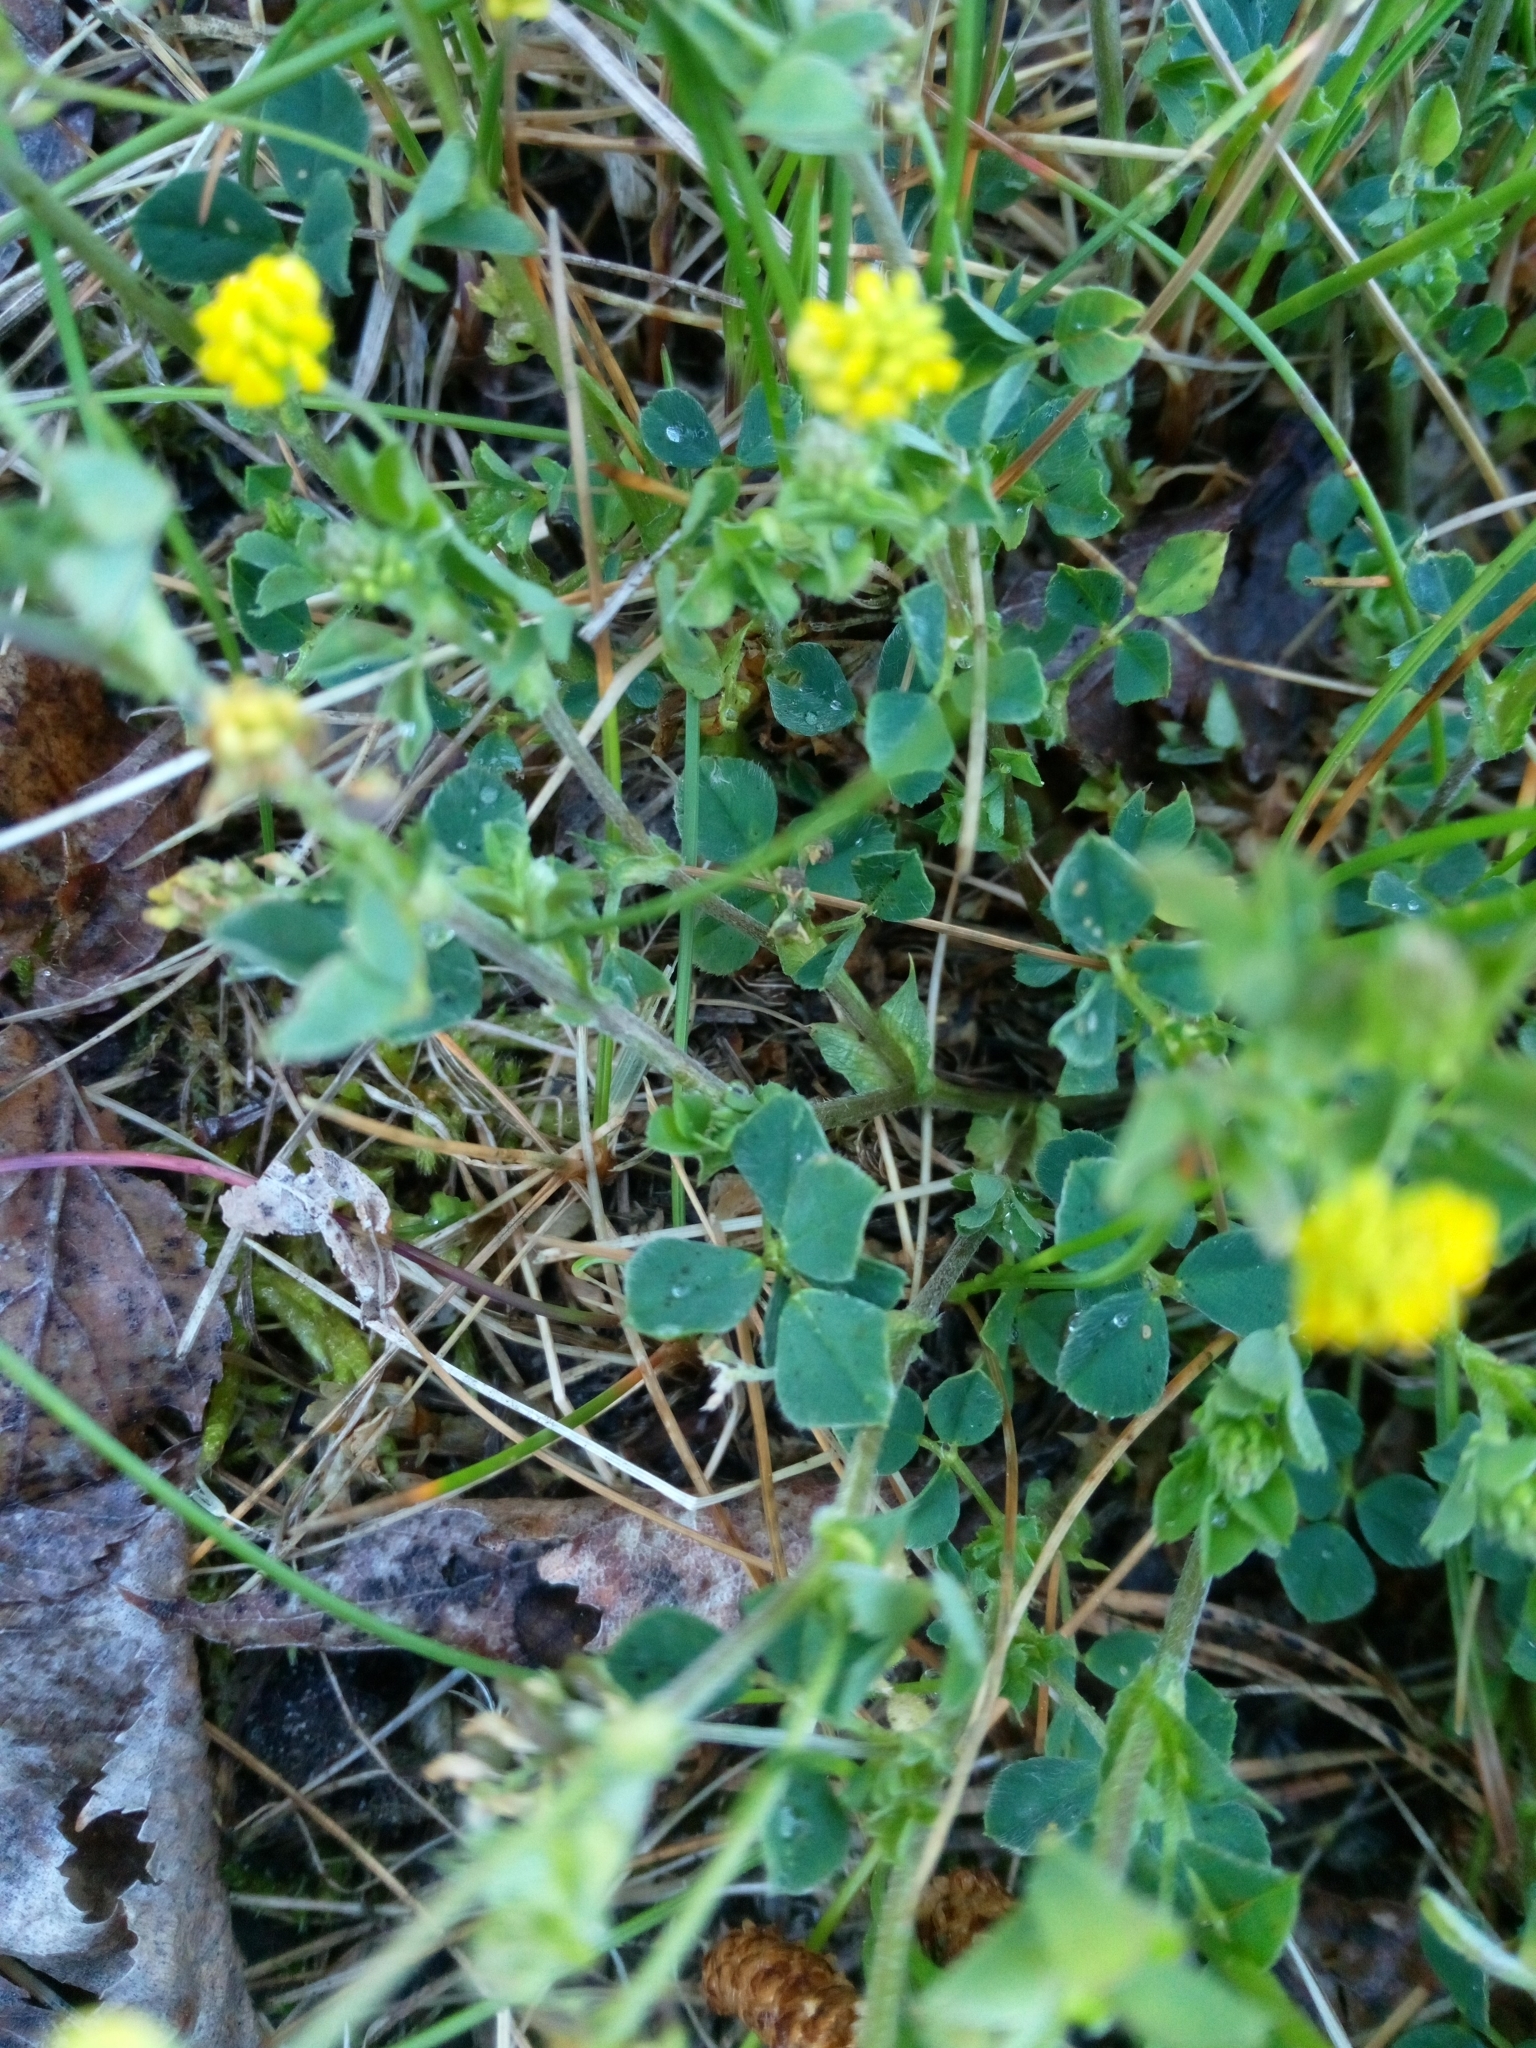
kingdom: Plantae
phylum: Tracheophyta
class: Magnoliopsida
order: Fabales
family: Fabaceae
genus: Medicago
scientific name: Medicago lupulina
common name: Black medick
